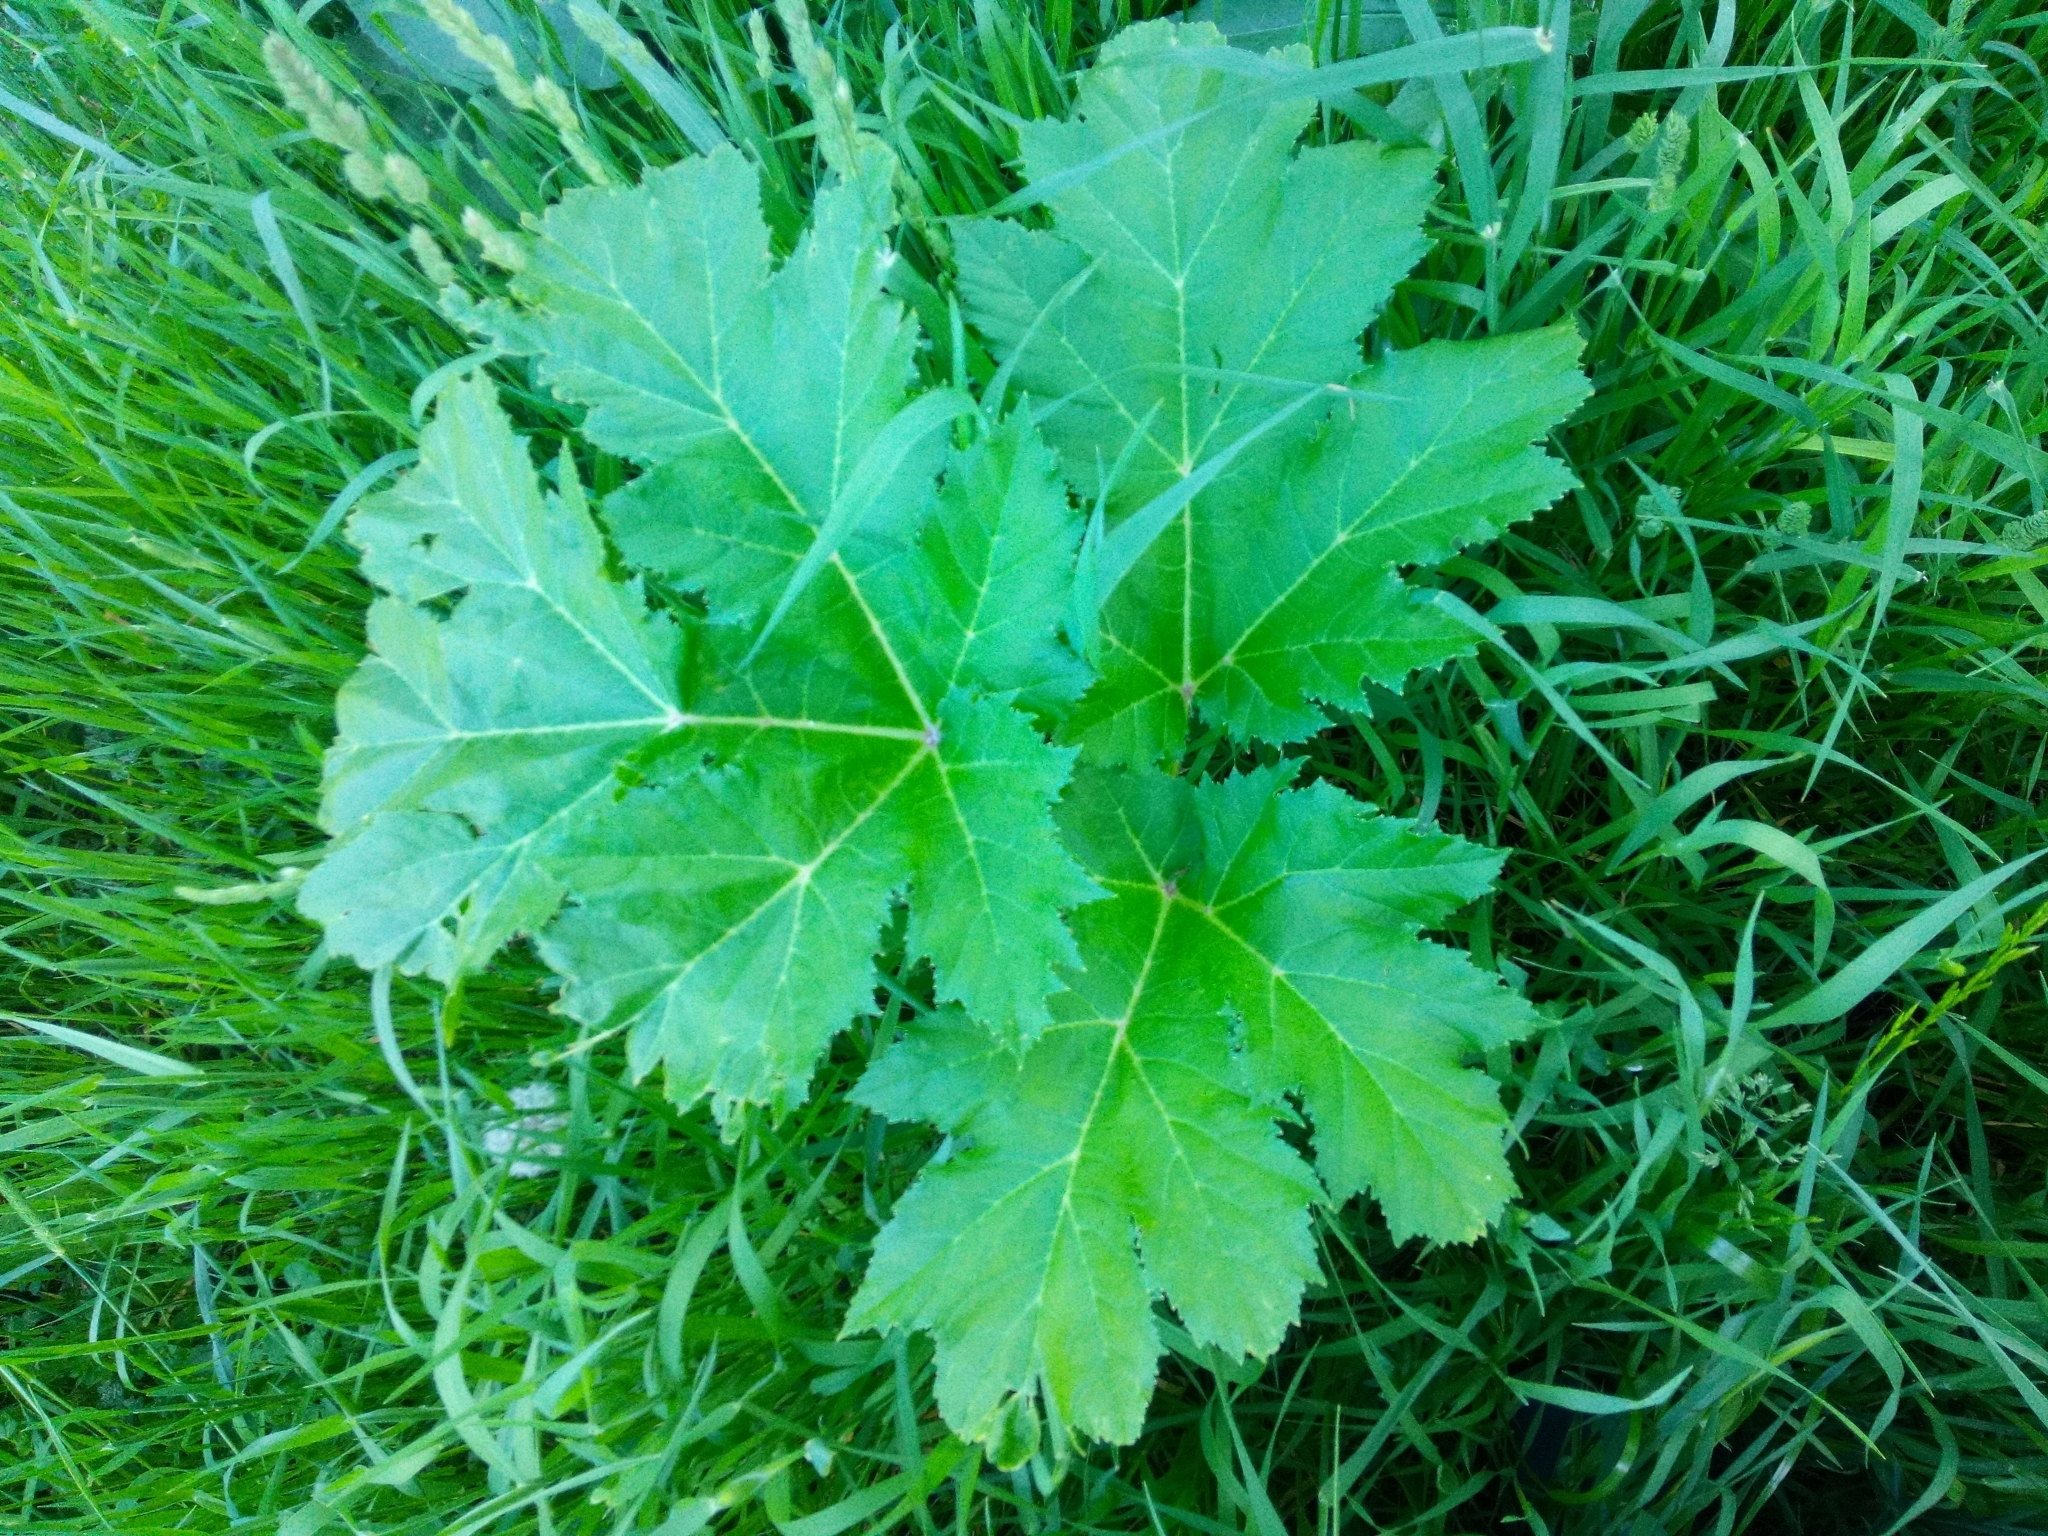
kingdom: Plantae
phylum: Tracheophyta
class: Magnoliopsida
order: Apiales
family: Apiaceae
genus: Heracleum
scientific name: Heracleum sosnowskyi
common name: Sosnowsky's hogweed
